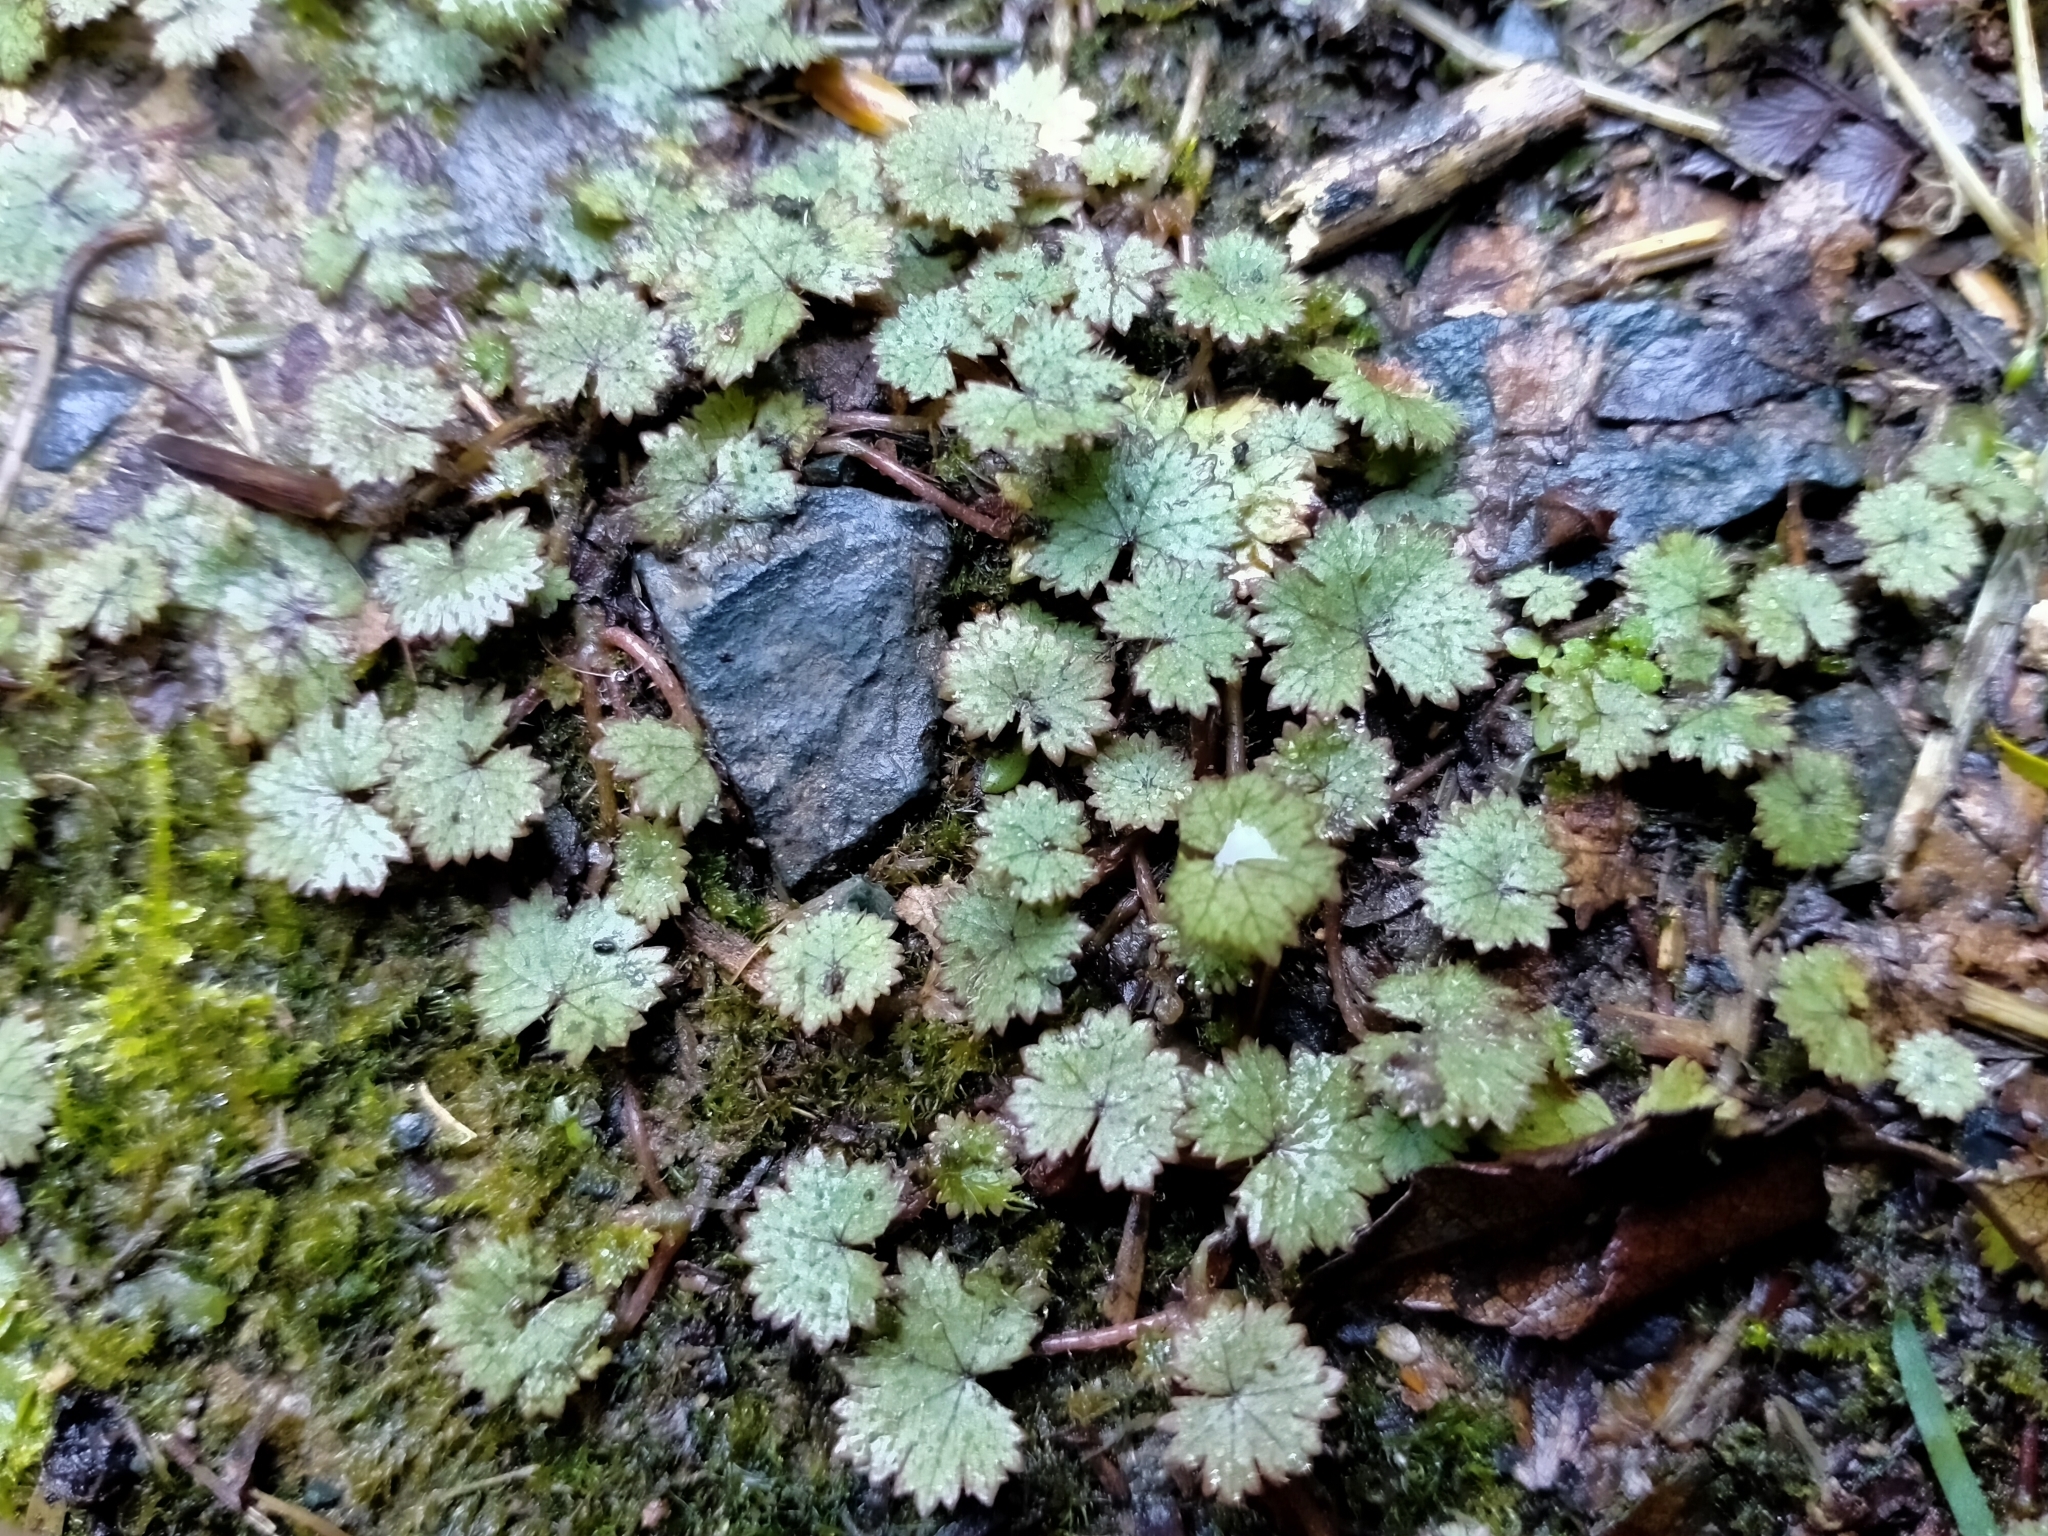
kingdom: Plantae
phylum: Tracheophyta
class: Magnoliopsida
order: Apiales
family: Araliaceae
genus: Hydrocotyle
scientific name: Hydrocotyle moschata
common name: Hairy pennywort
